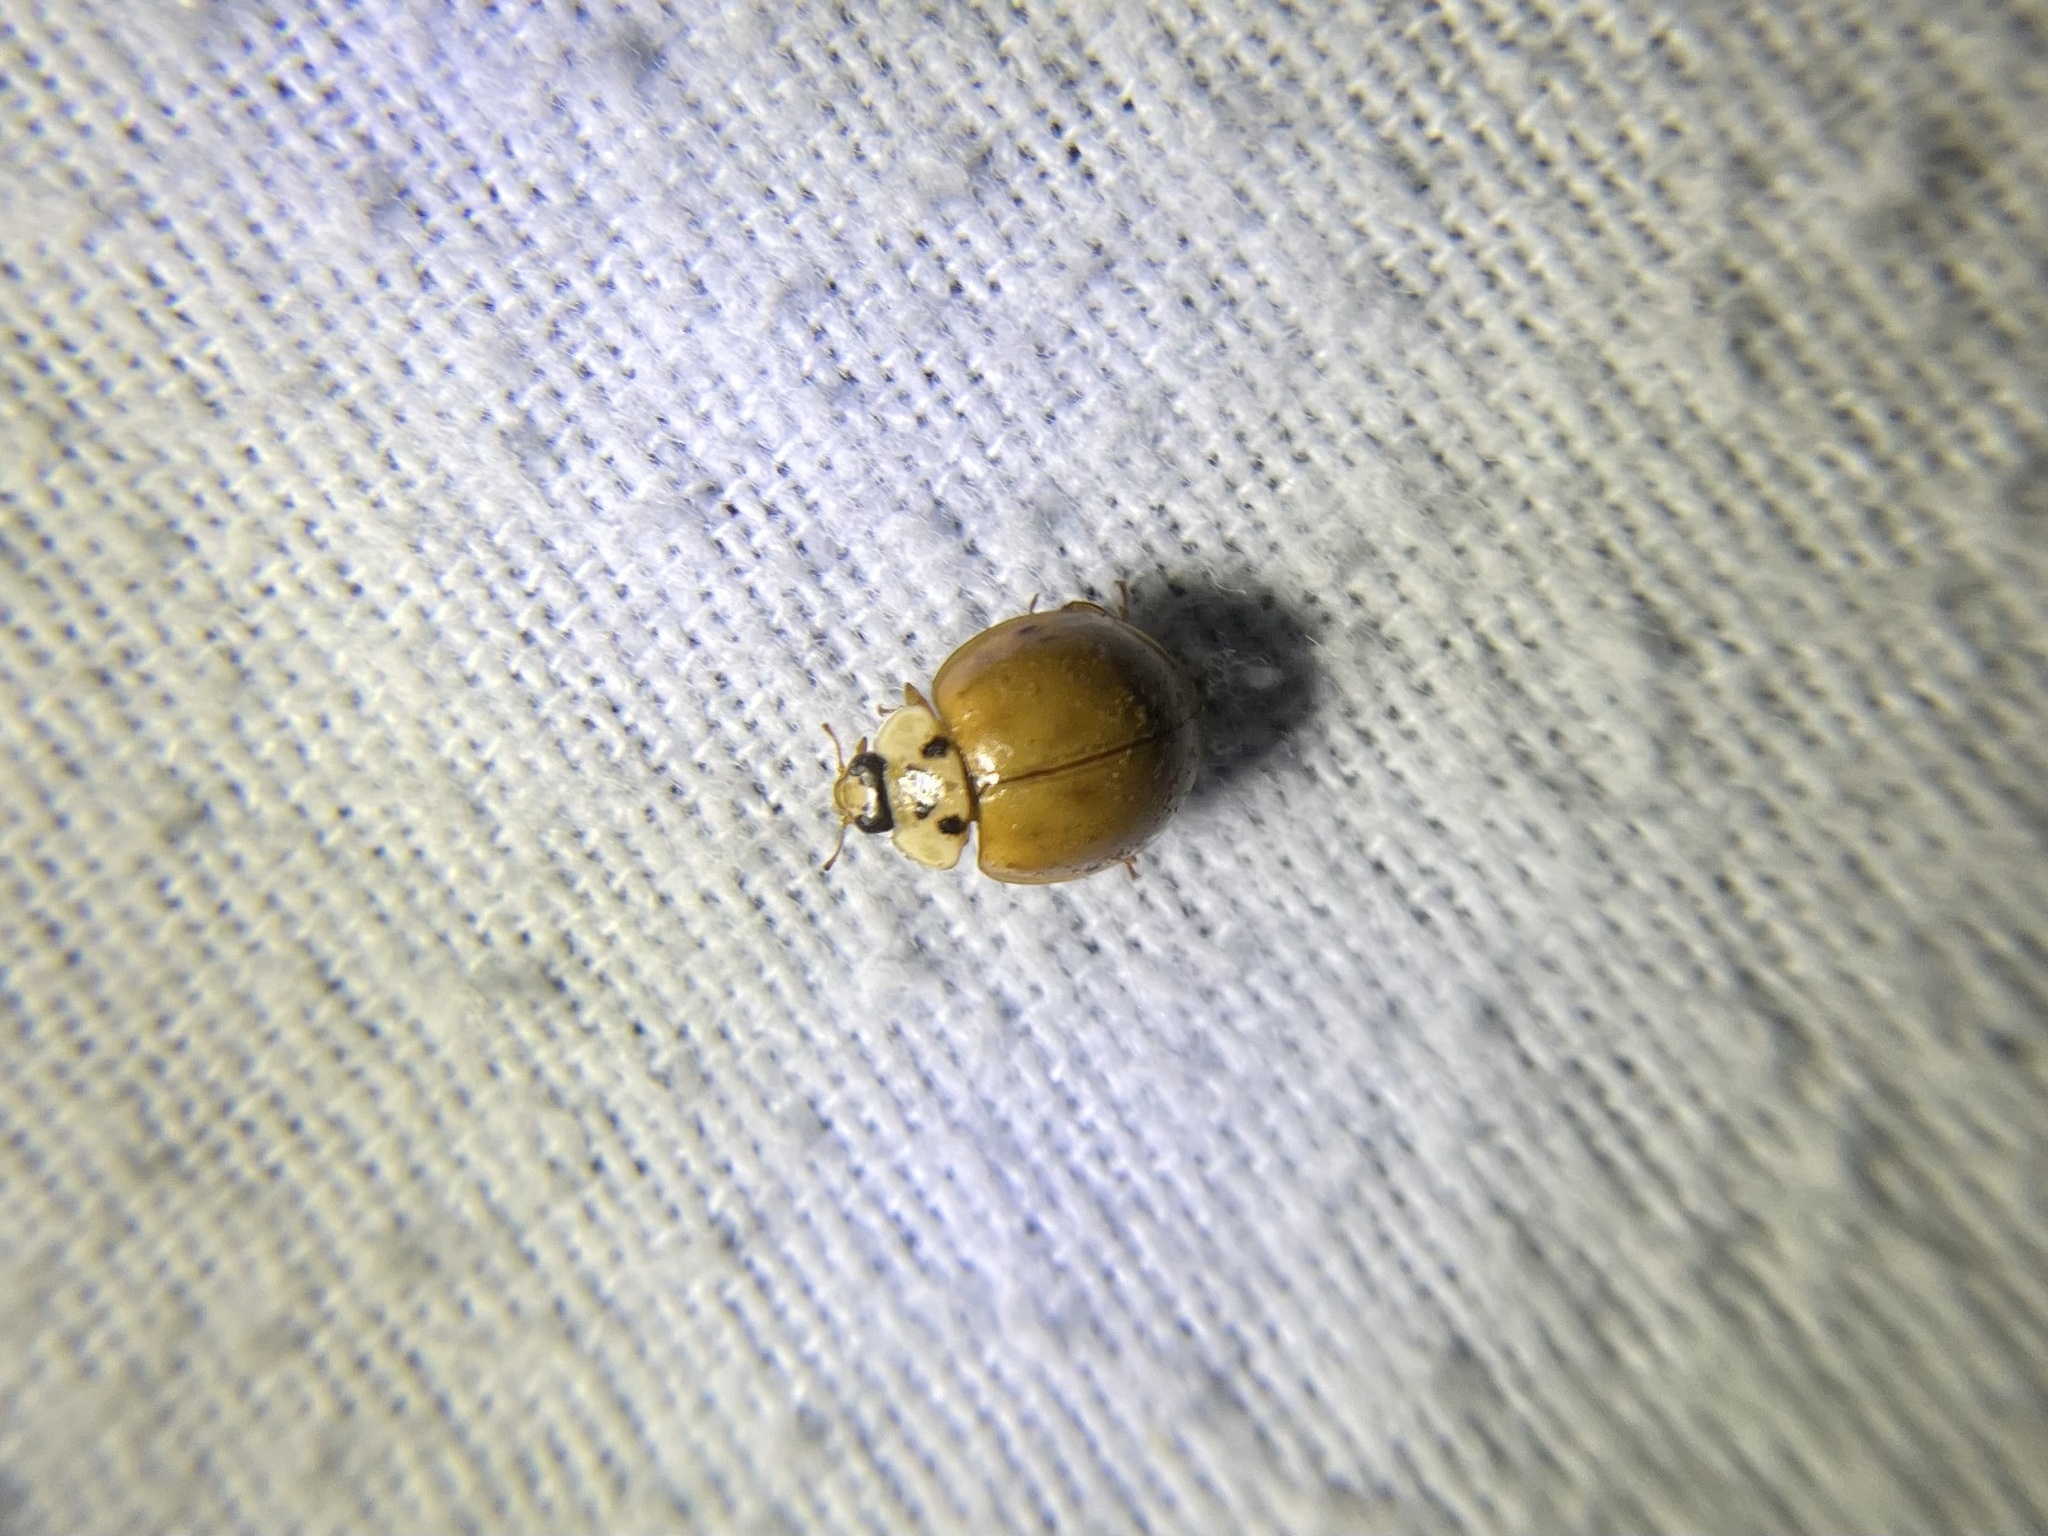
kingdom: Animalia
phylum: Arthropoda
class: Insecta
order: Coleoptera
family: Coccinellidae
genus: Harmonia
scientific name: Harmonia axyridis
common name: Harlequin ladybird
